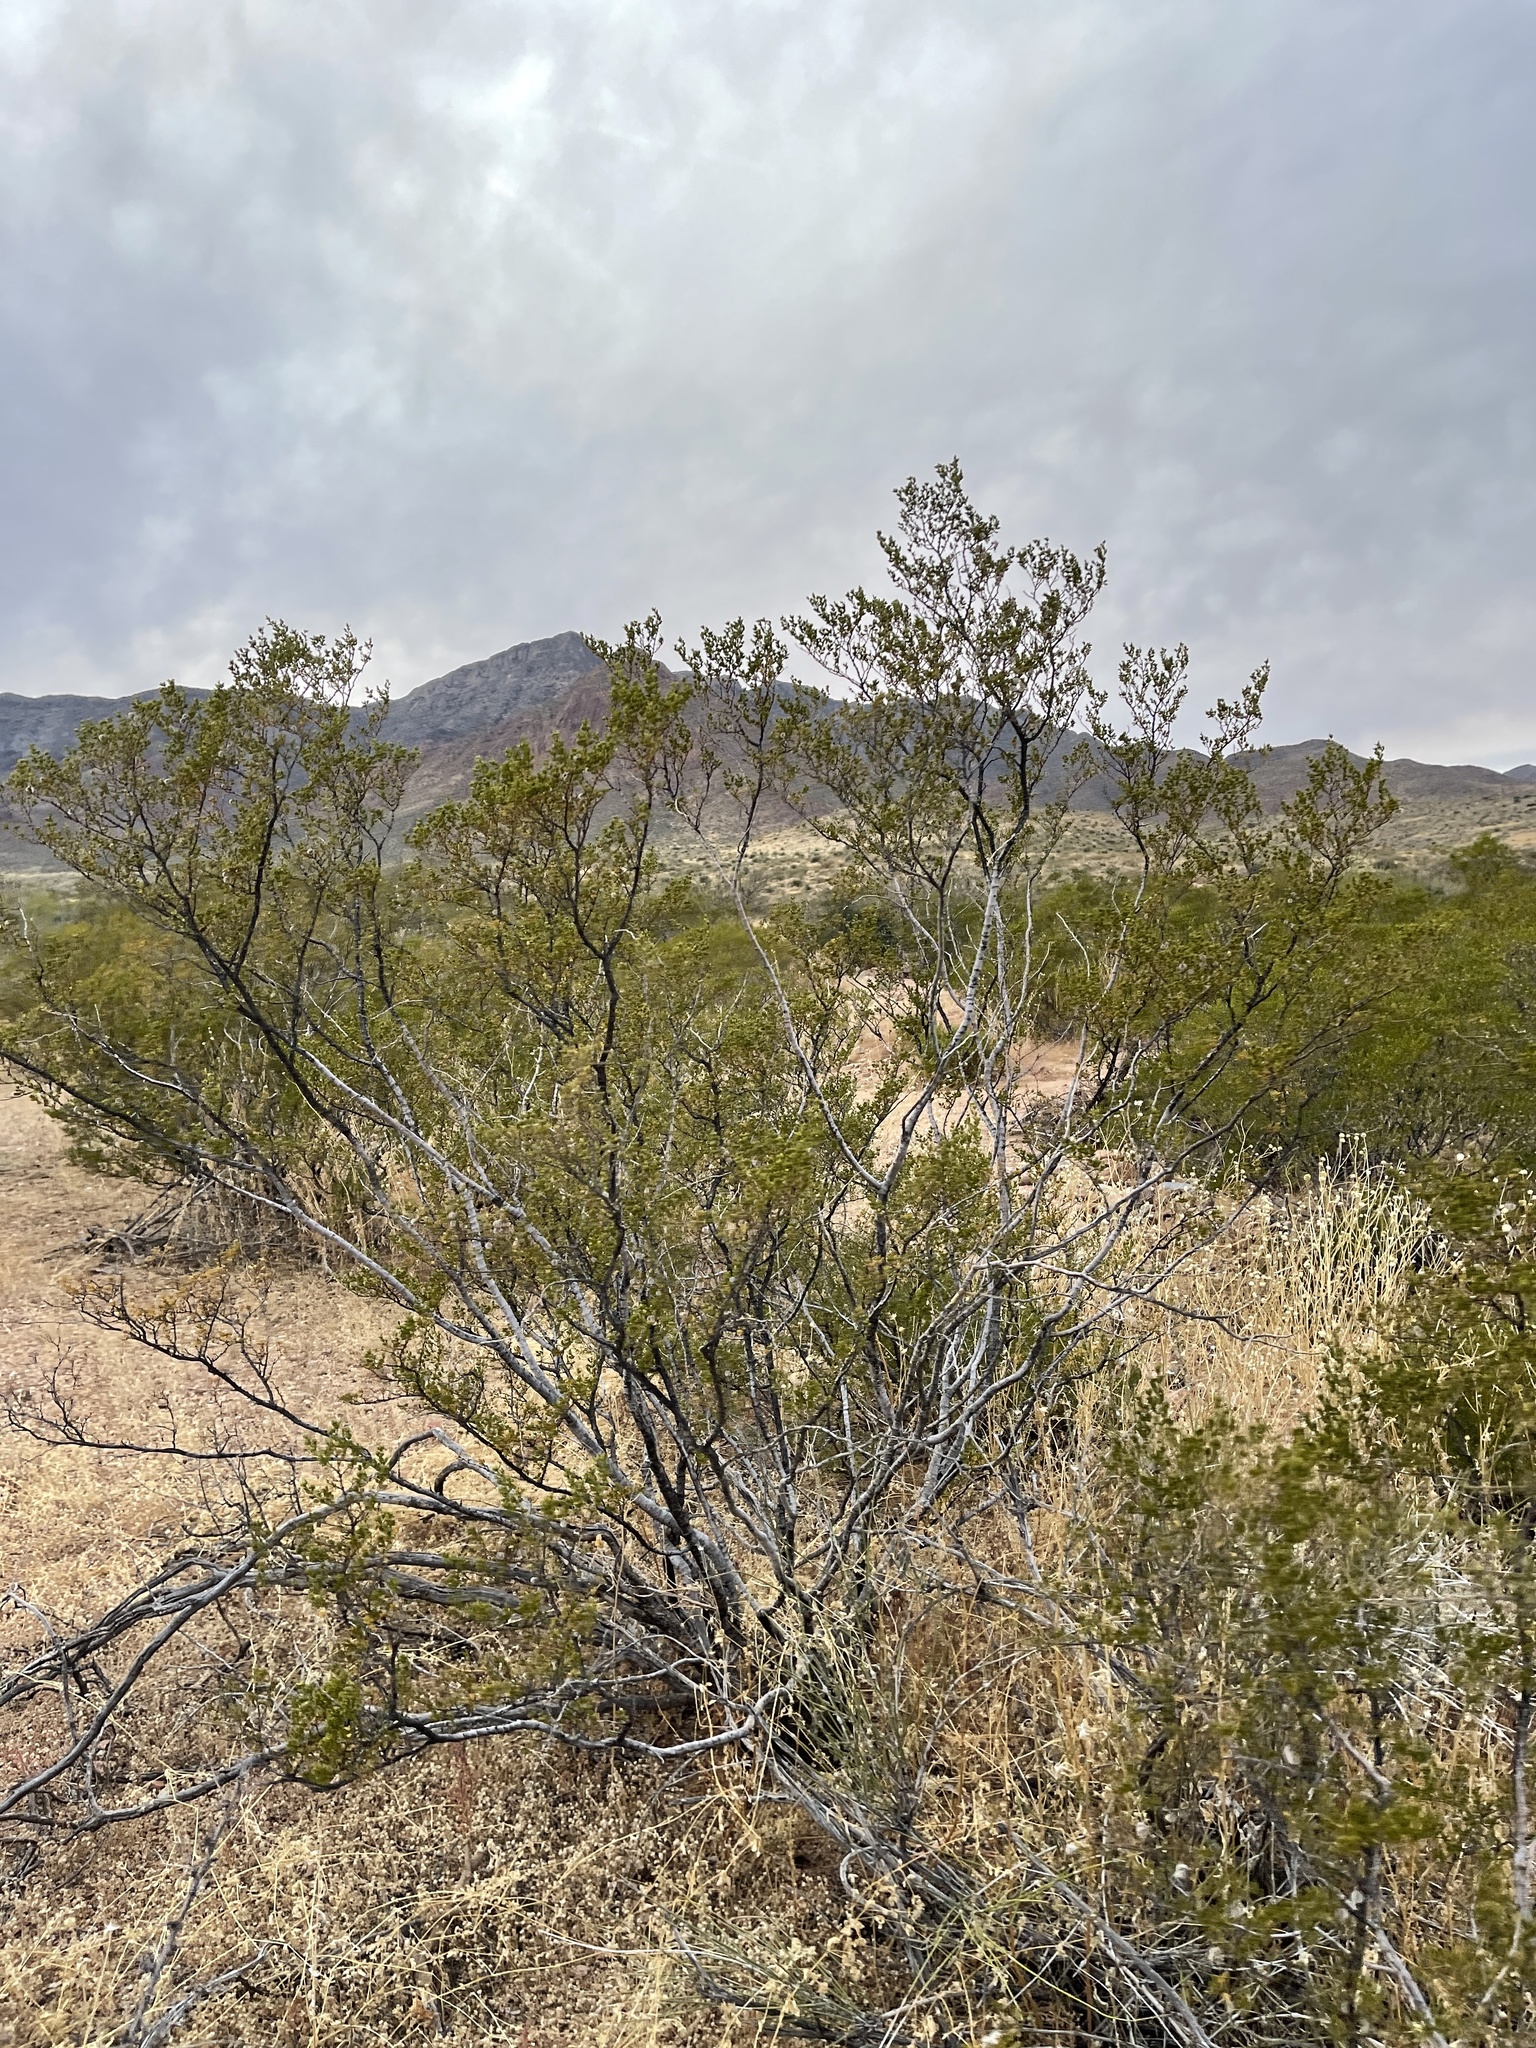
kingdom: Plantae
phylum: Tracheophyta
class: Magnoliopsida
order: Zygophyllales
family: Zygophyllaceae
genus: Larrea
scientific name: Larrea tridentata
